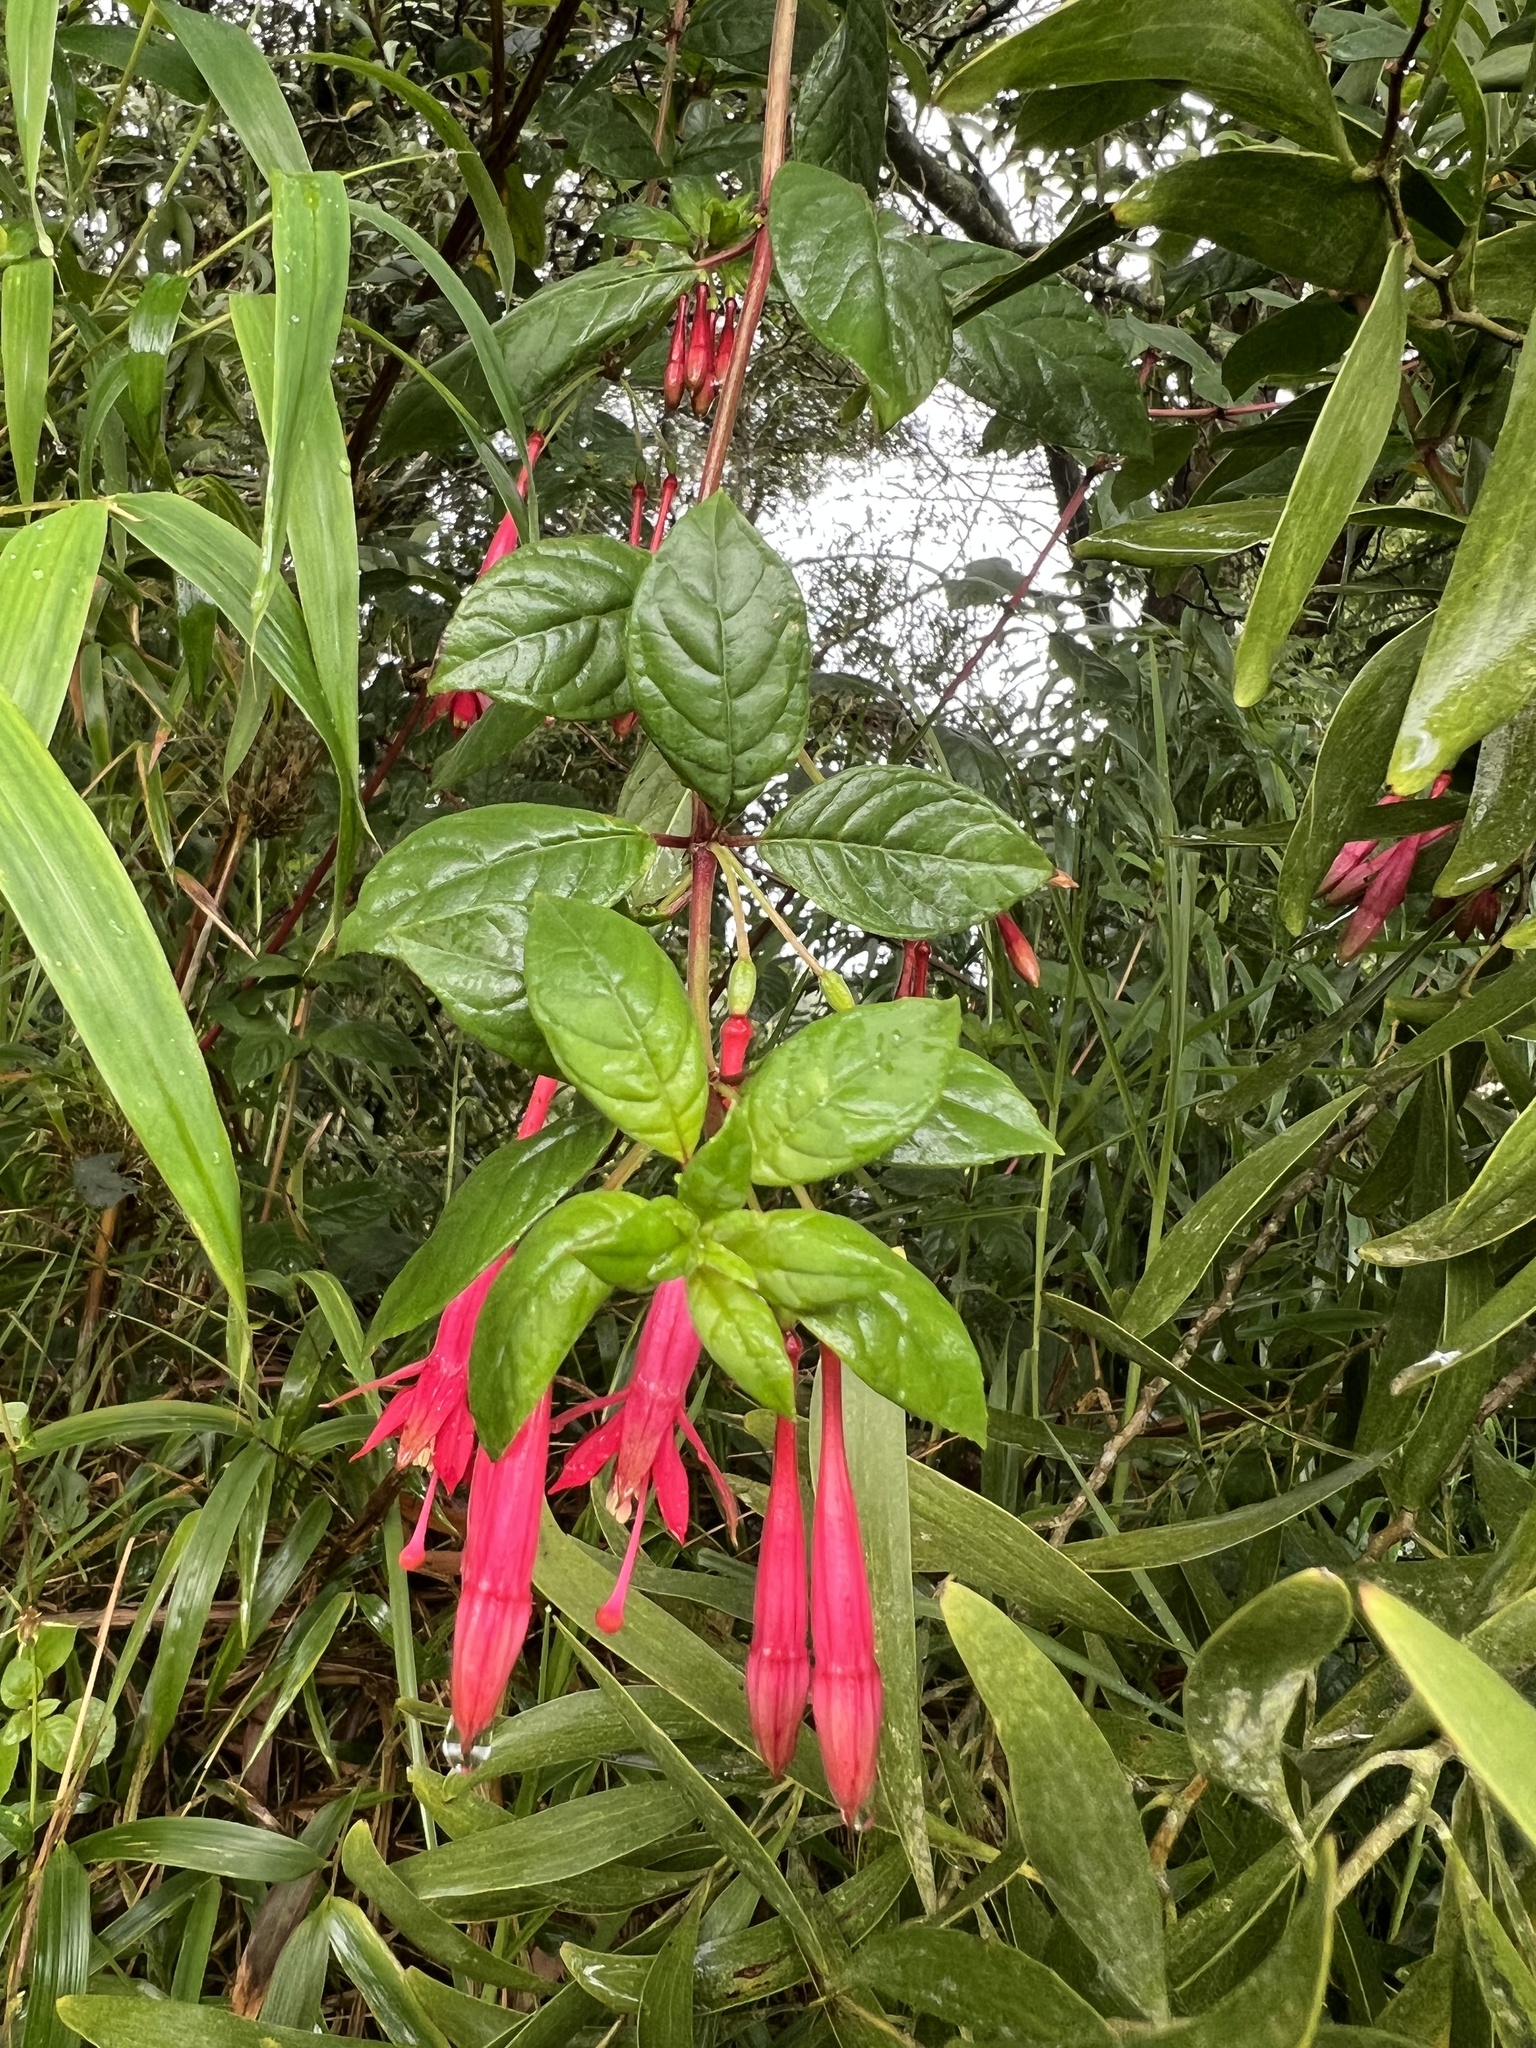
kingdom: Plantae
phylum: Tracheophyta
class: Magnoliopsida
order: Myrtales
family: Onagraceae
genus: Fuchsia
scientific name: Fuchsia petiolaris
